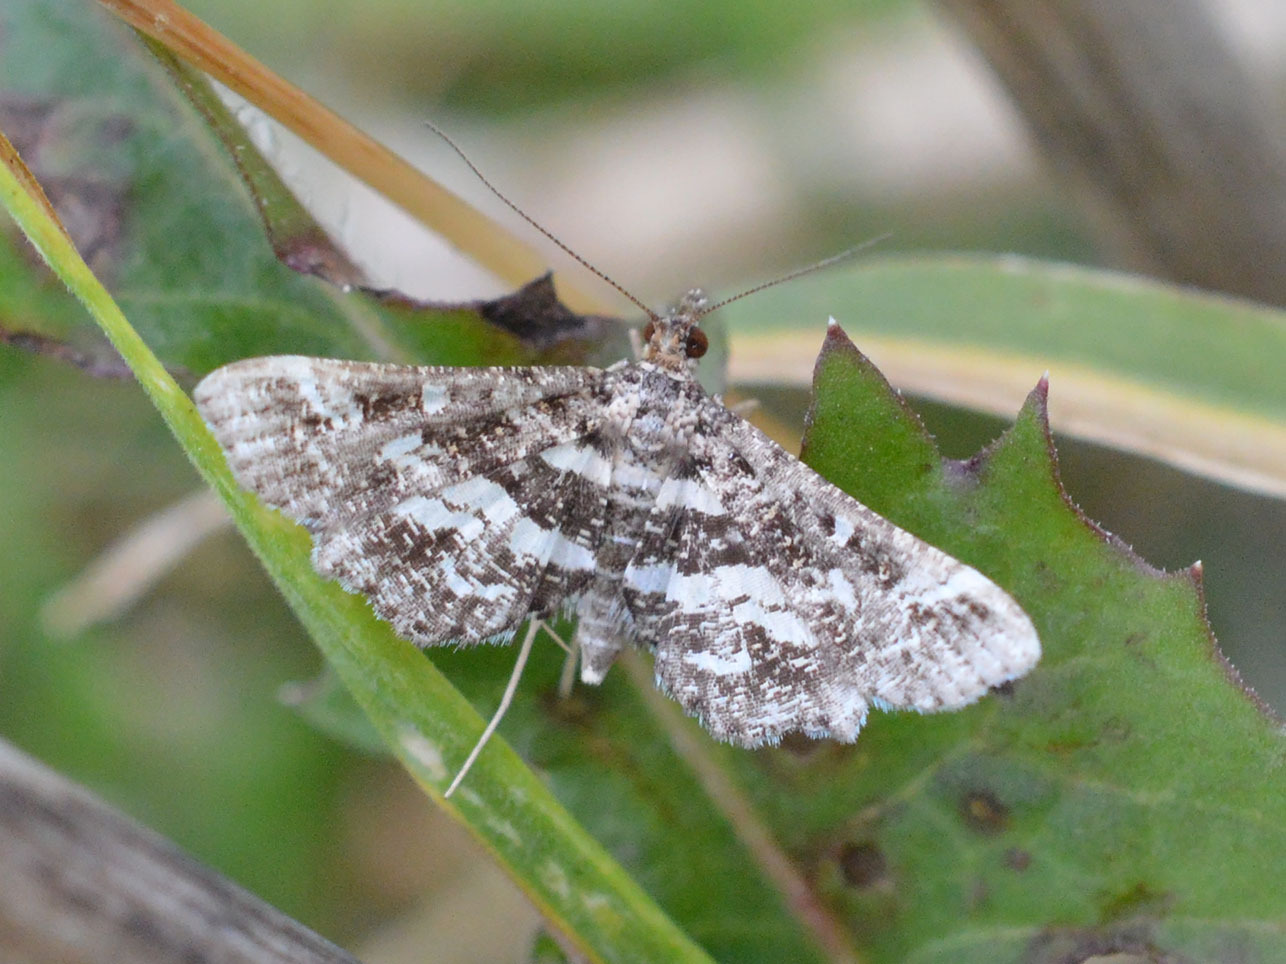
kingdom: Animalia
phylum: Arthropoda
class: Insecta
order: Lepidoptera
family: Crambidae
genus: Diasemiopsis
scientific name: Diasemiopsis ramburialis
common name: Vagrant china-mark
